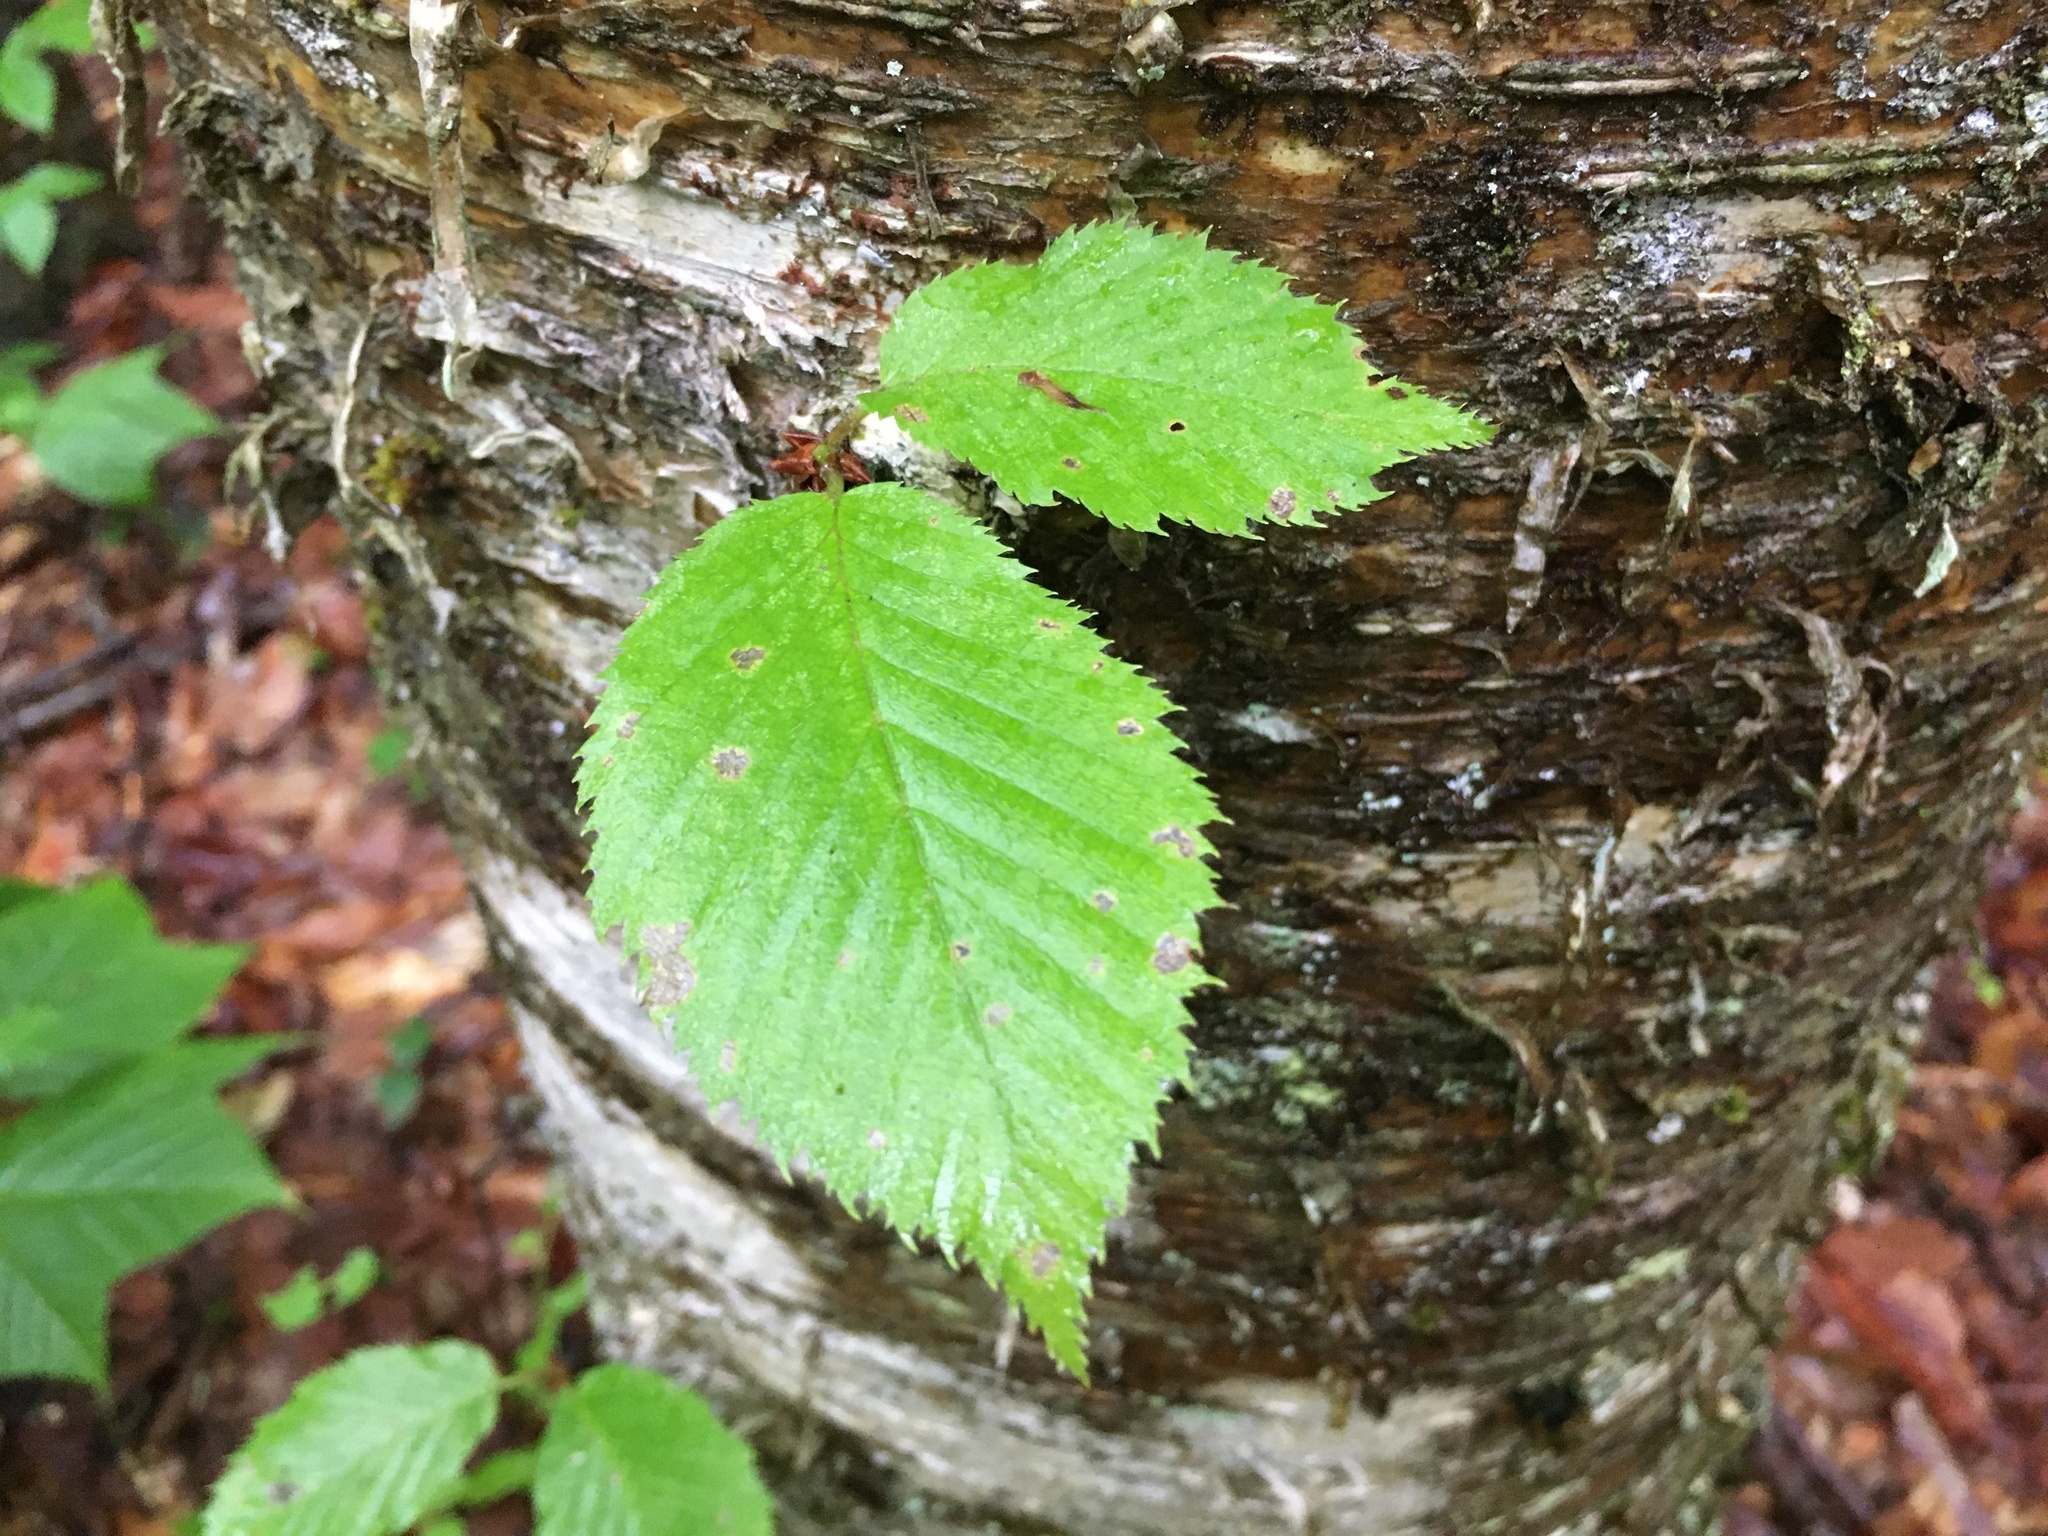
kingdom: Plantae
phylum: Tracheophyta
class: Magnoliopsida
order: Fagales
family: Betulaceae
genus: Betula
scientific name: Betula alleghaniensis
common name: Yellow birch
